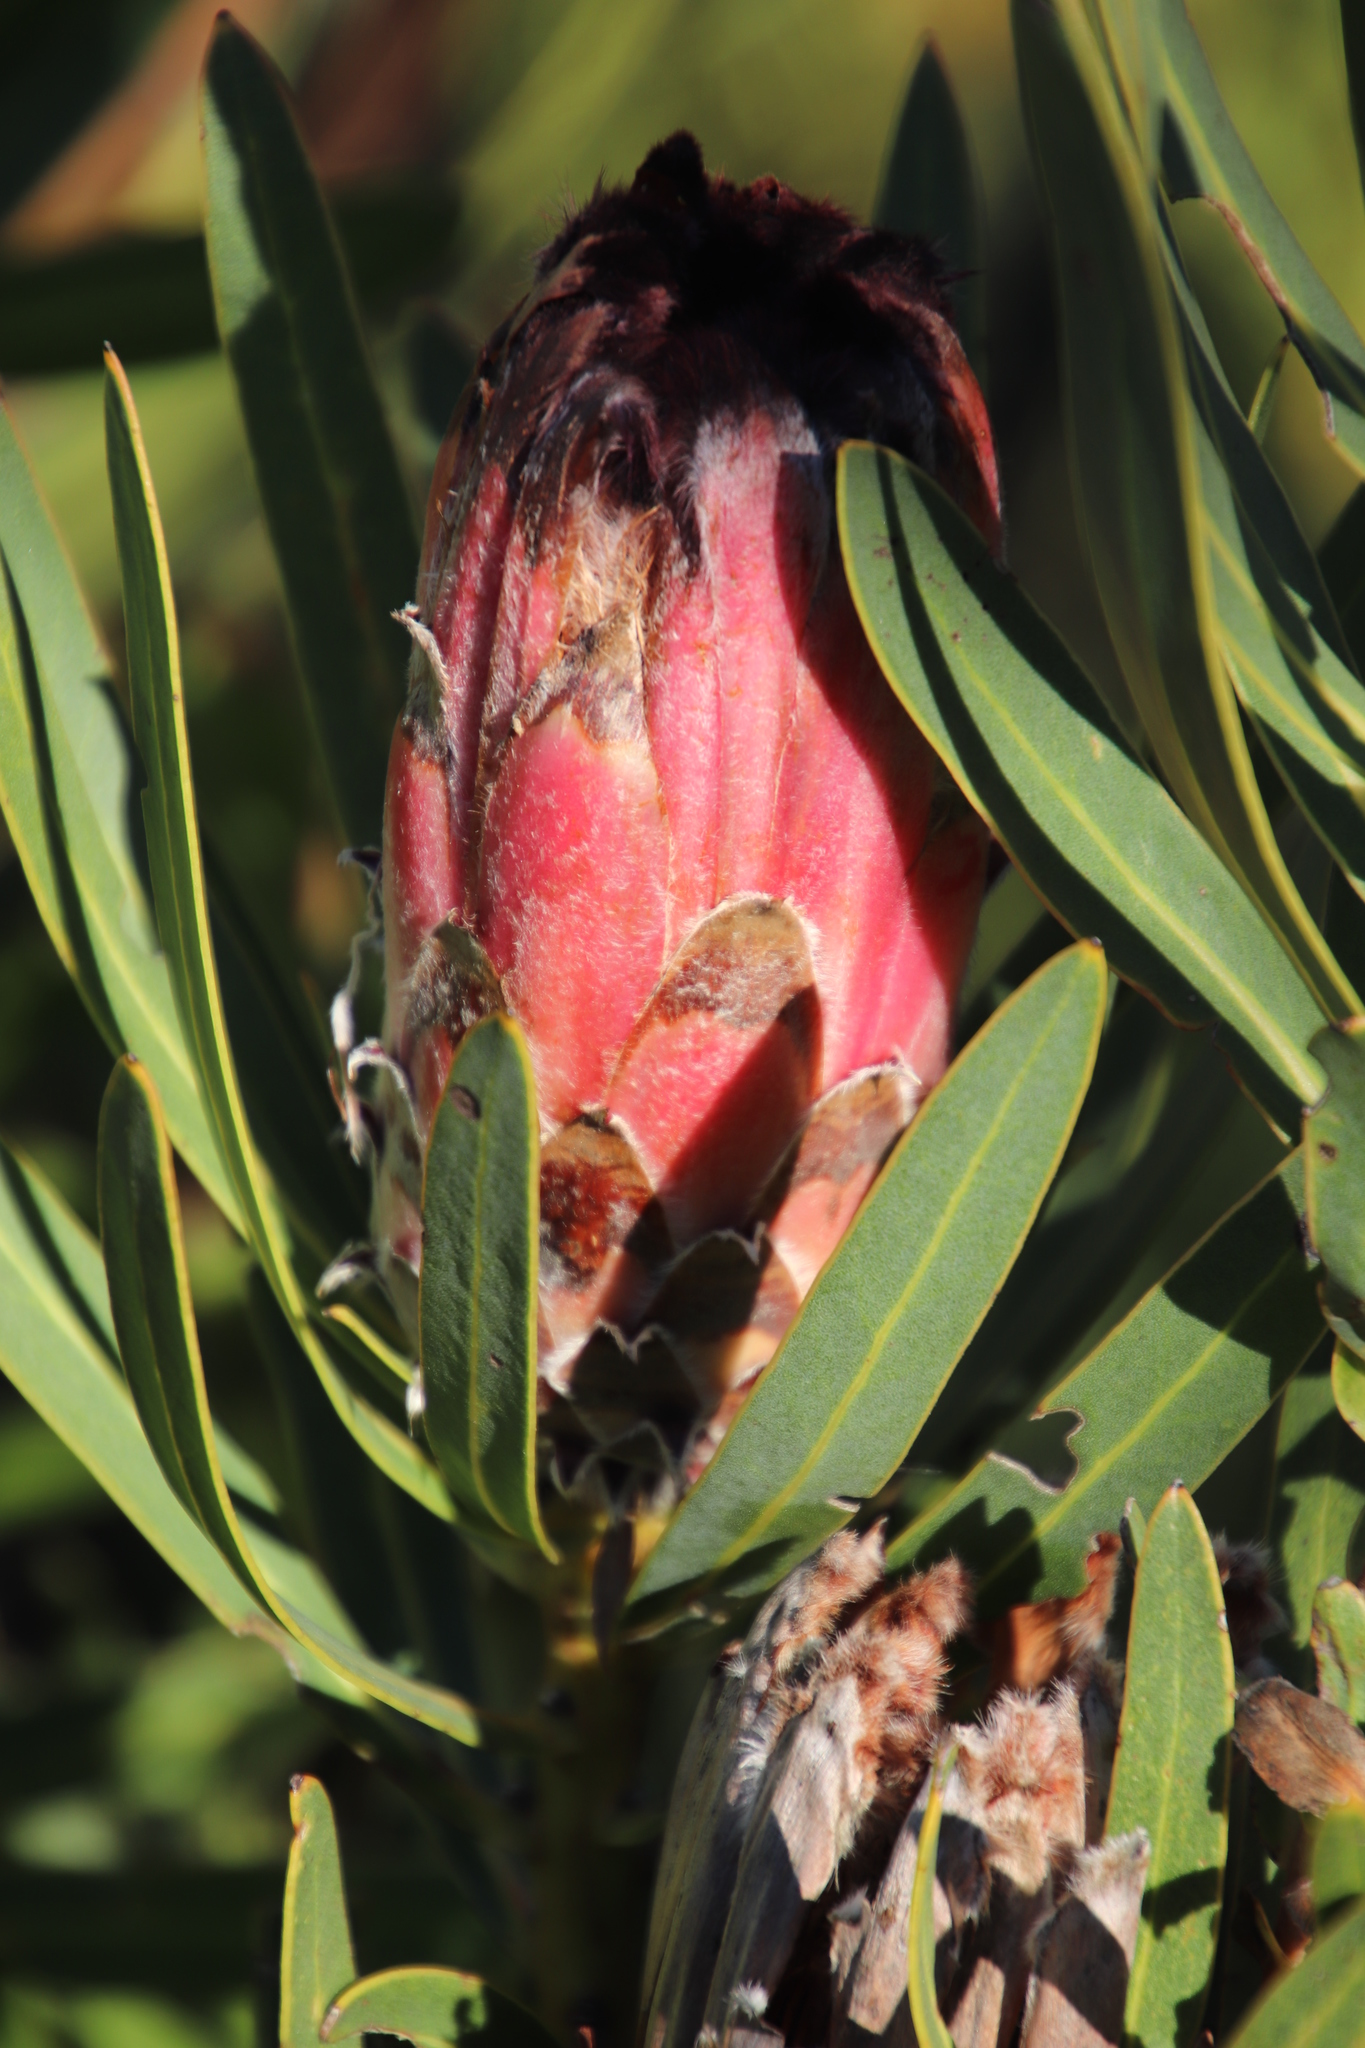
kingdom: Plantae
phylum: Tracheophyta
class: Magnoliopsida
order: Proteales
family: Proteaceae
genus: Protea
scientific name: Protea
